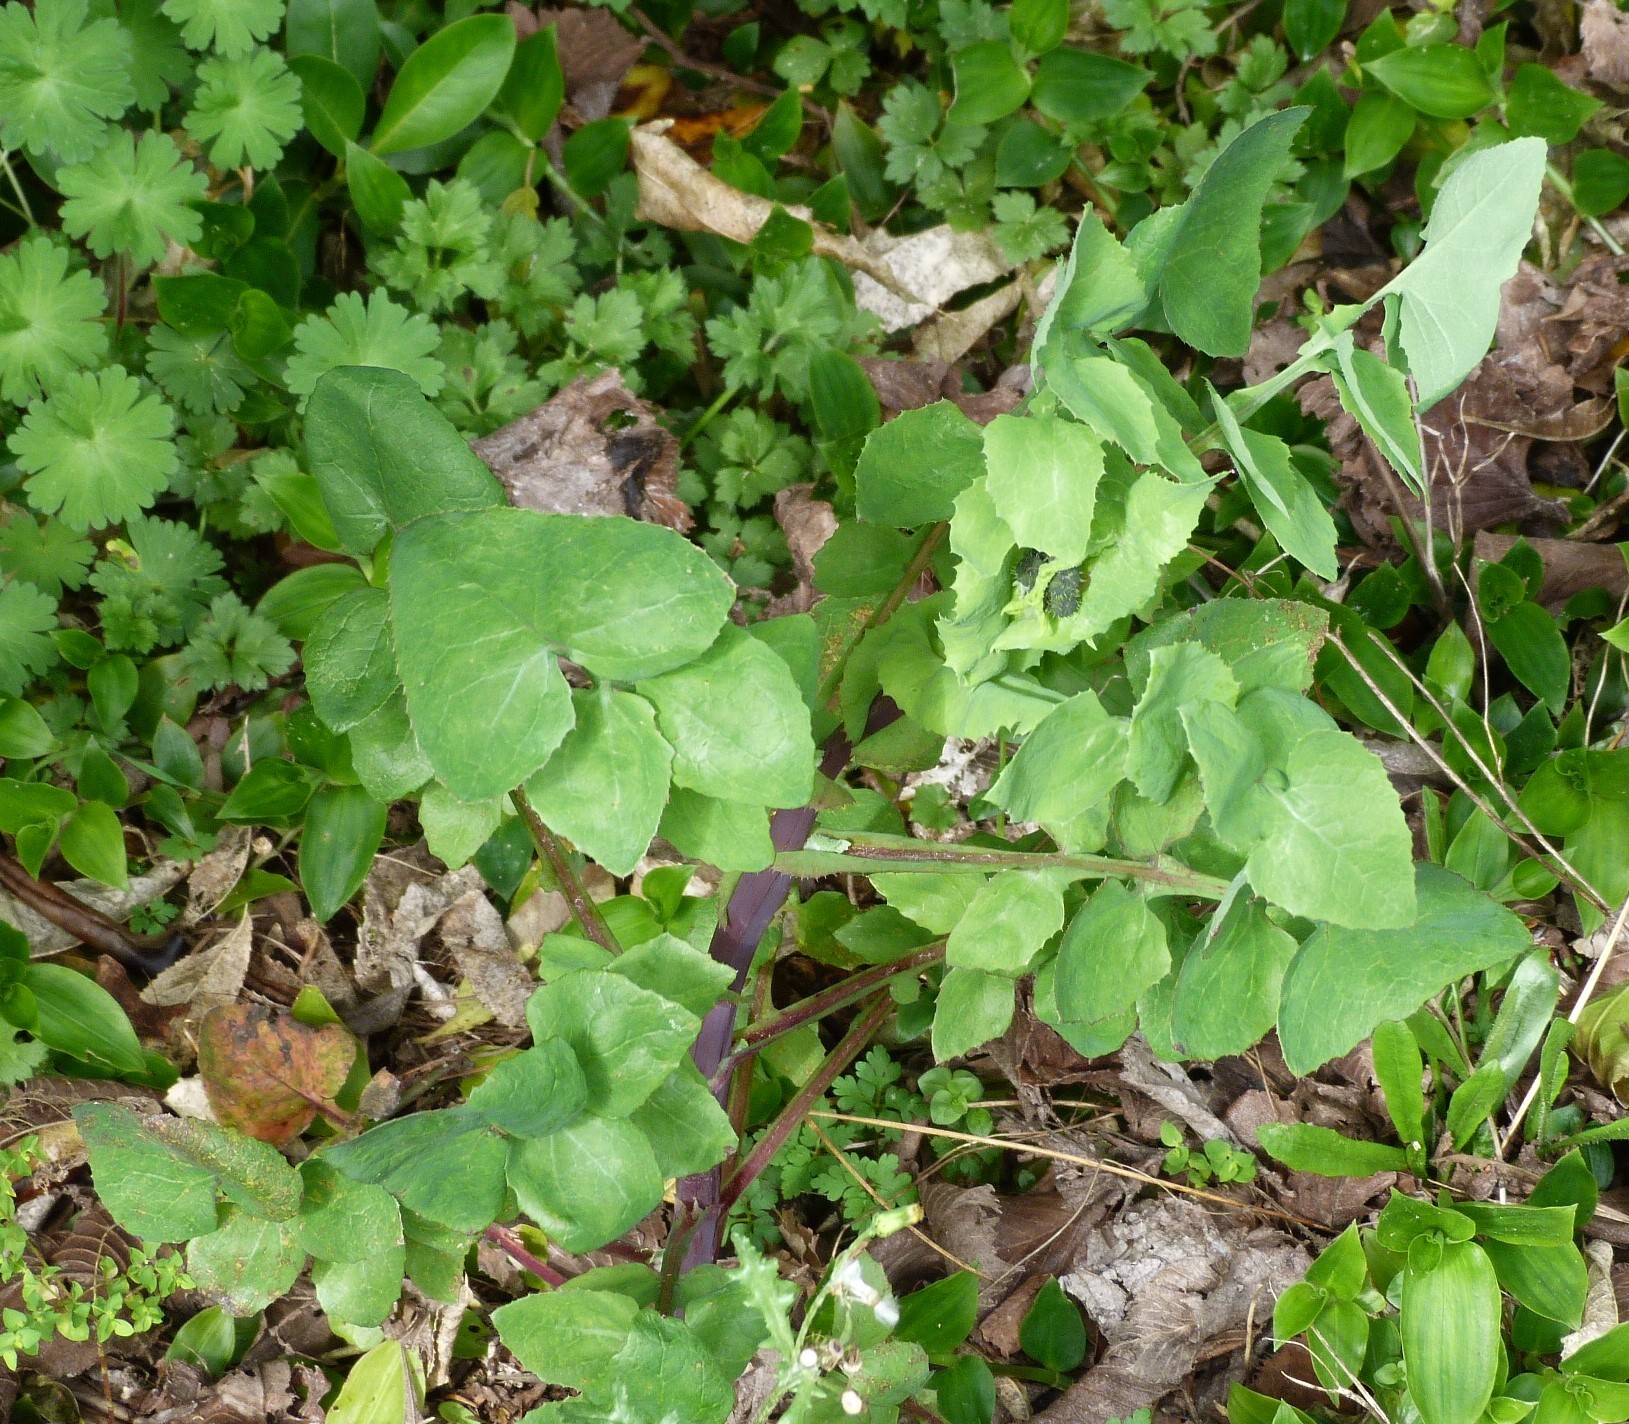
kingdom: Plantae
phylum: Tracheophyta
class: Magnoliopsida
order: Asterales
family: Asteraceae
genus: Sonchus
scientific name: Sonchus oleraceus
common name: Common sowthistle
